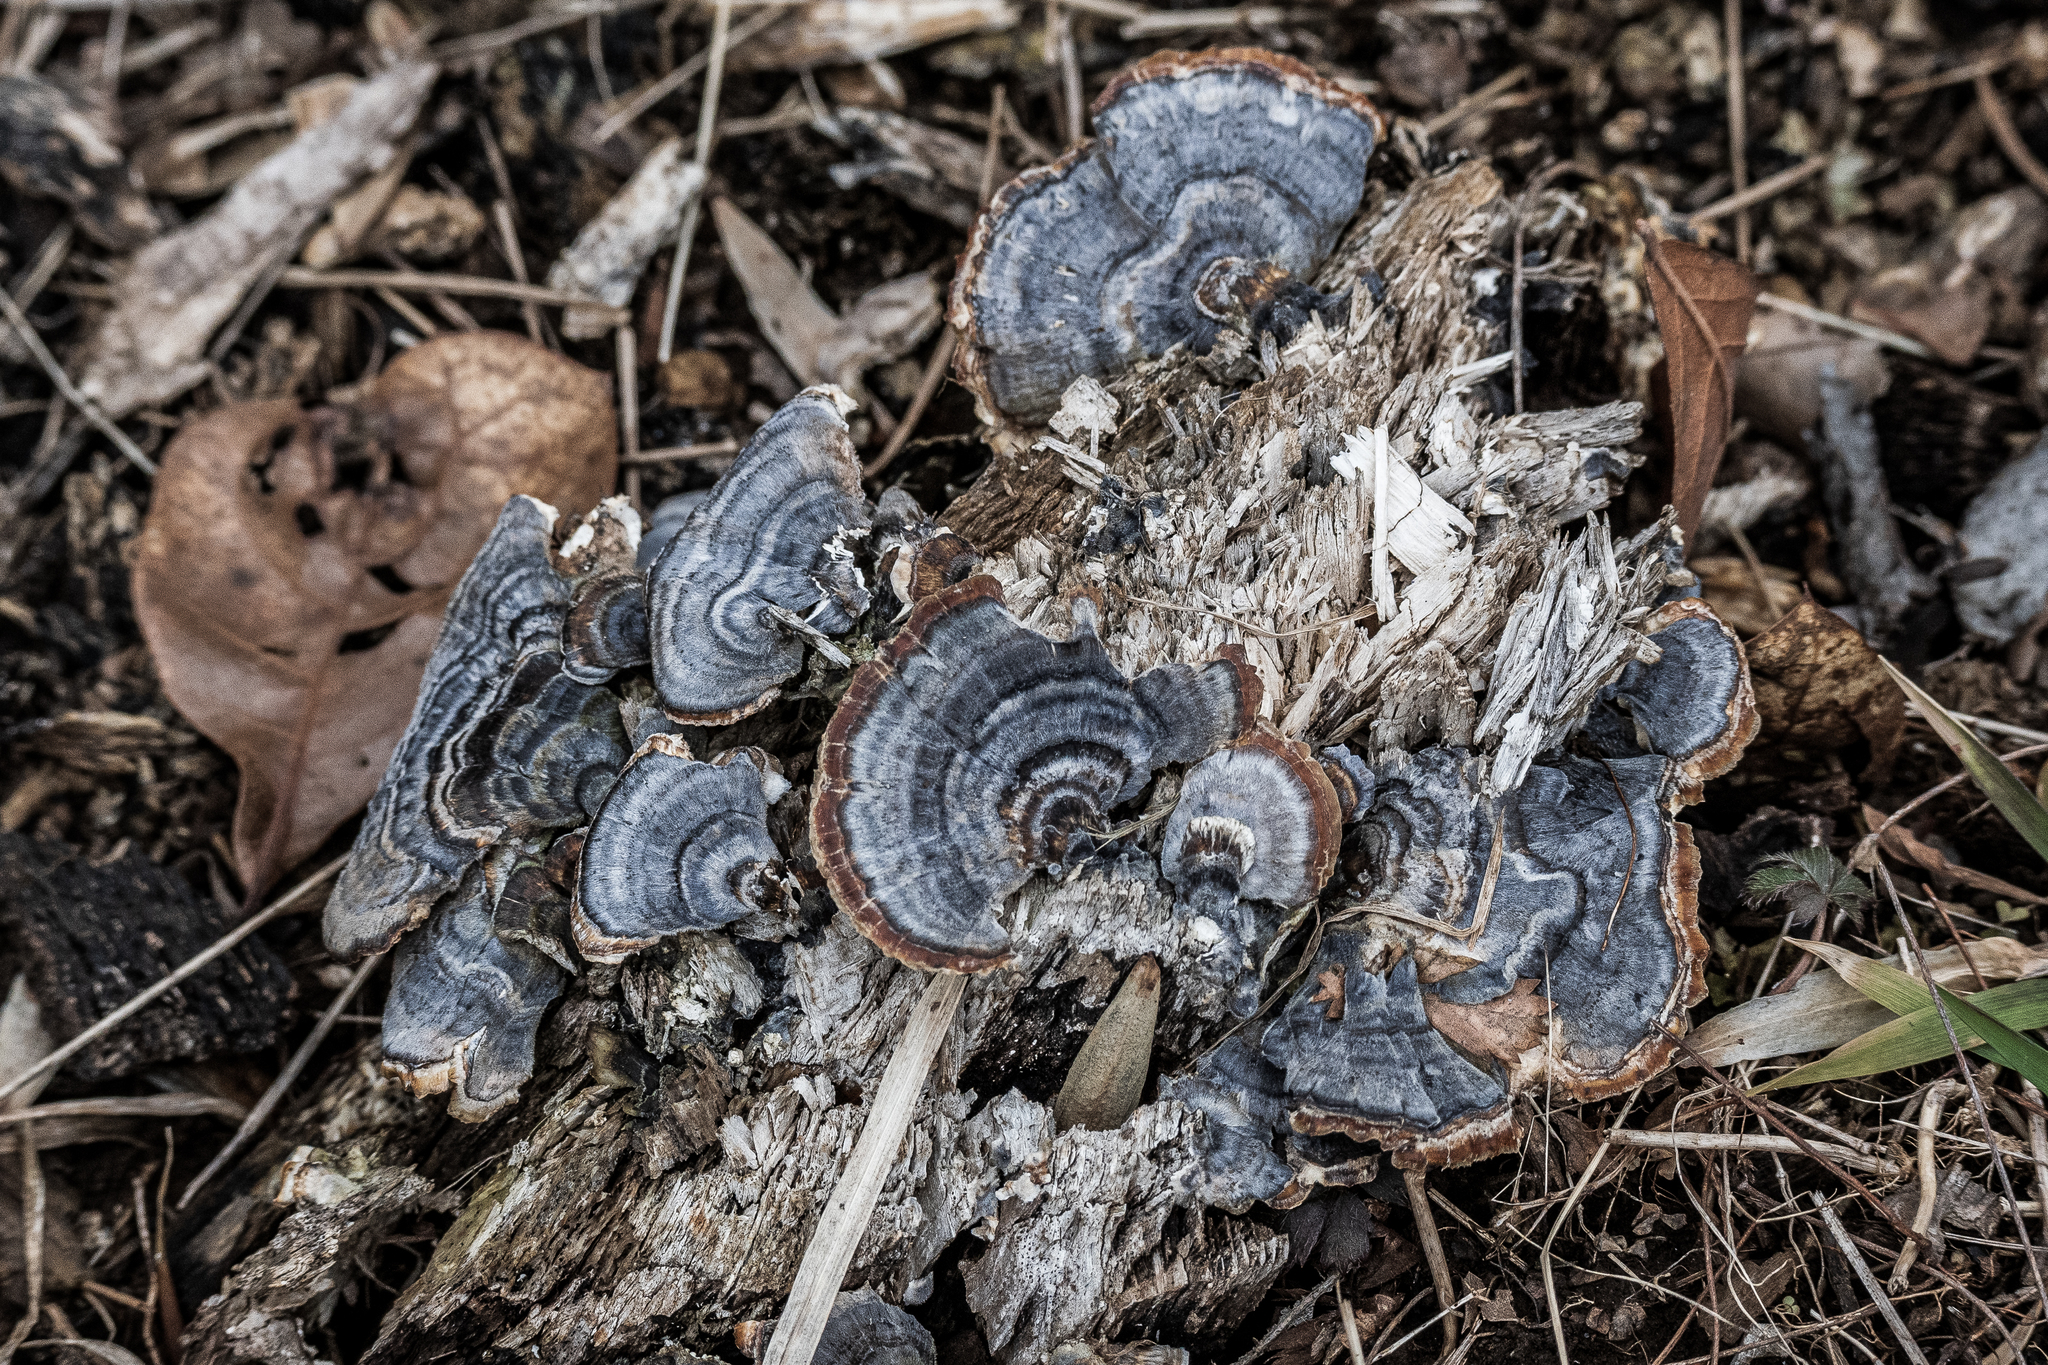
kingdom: Fungi
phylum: Basidiomycota
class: Agaricomycetes
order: Polyporales
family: Polyporaceae
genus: Trametes
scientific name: Trametes versicolor
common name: Turkeytail
